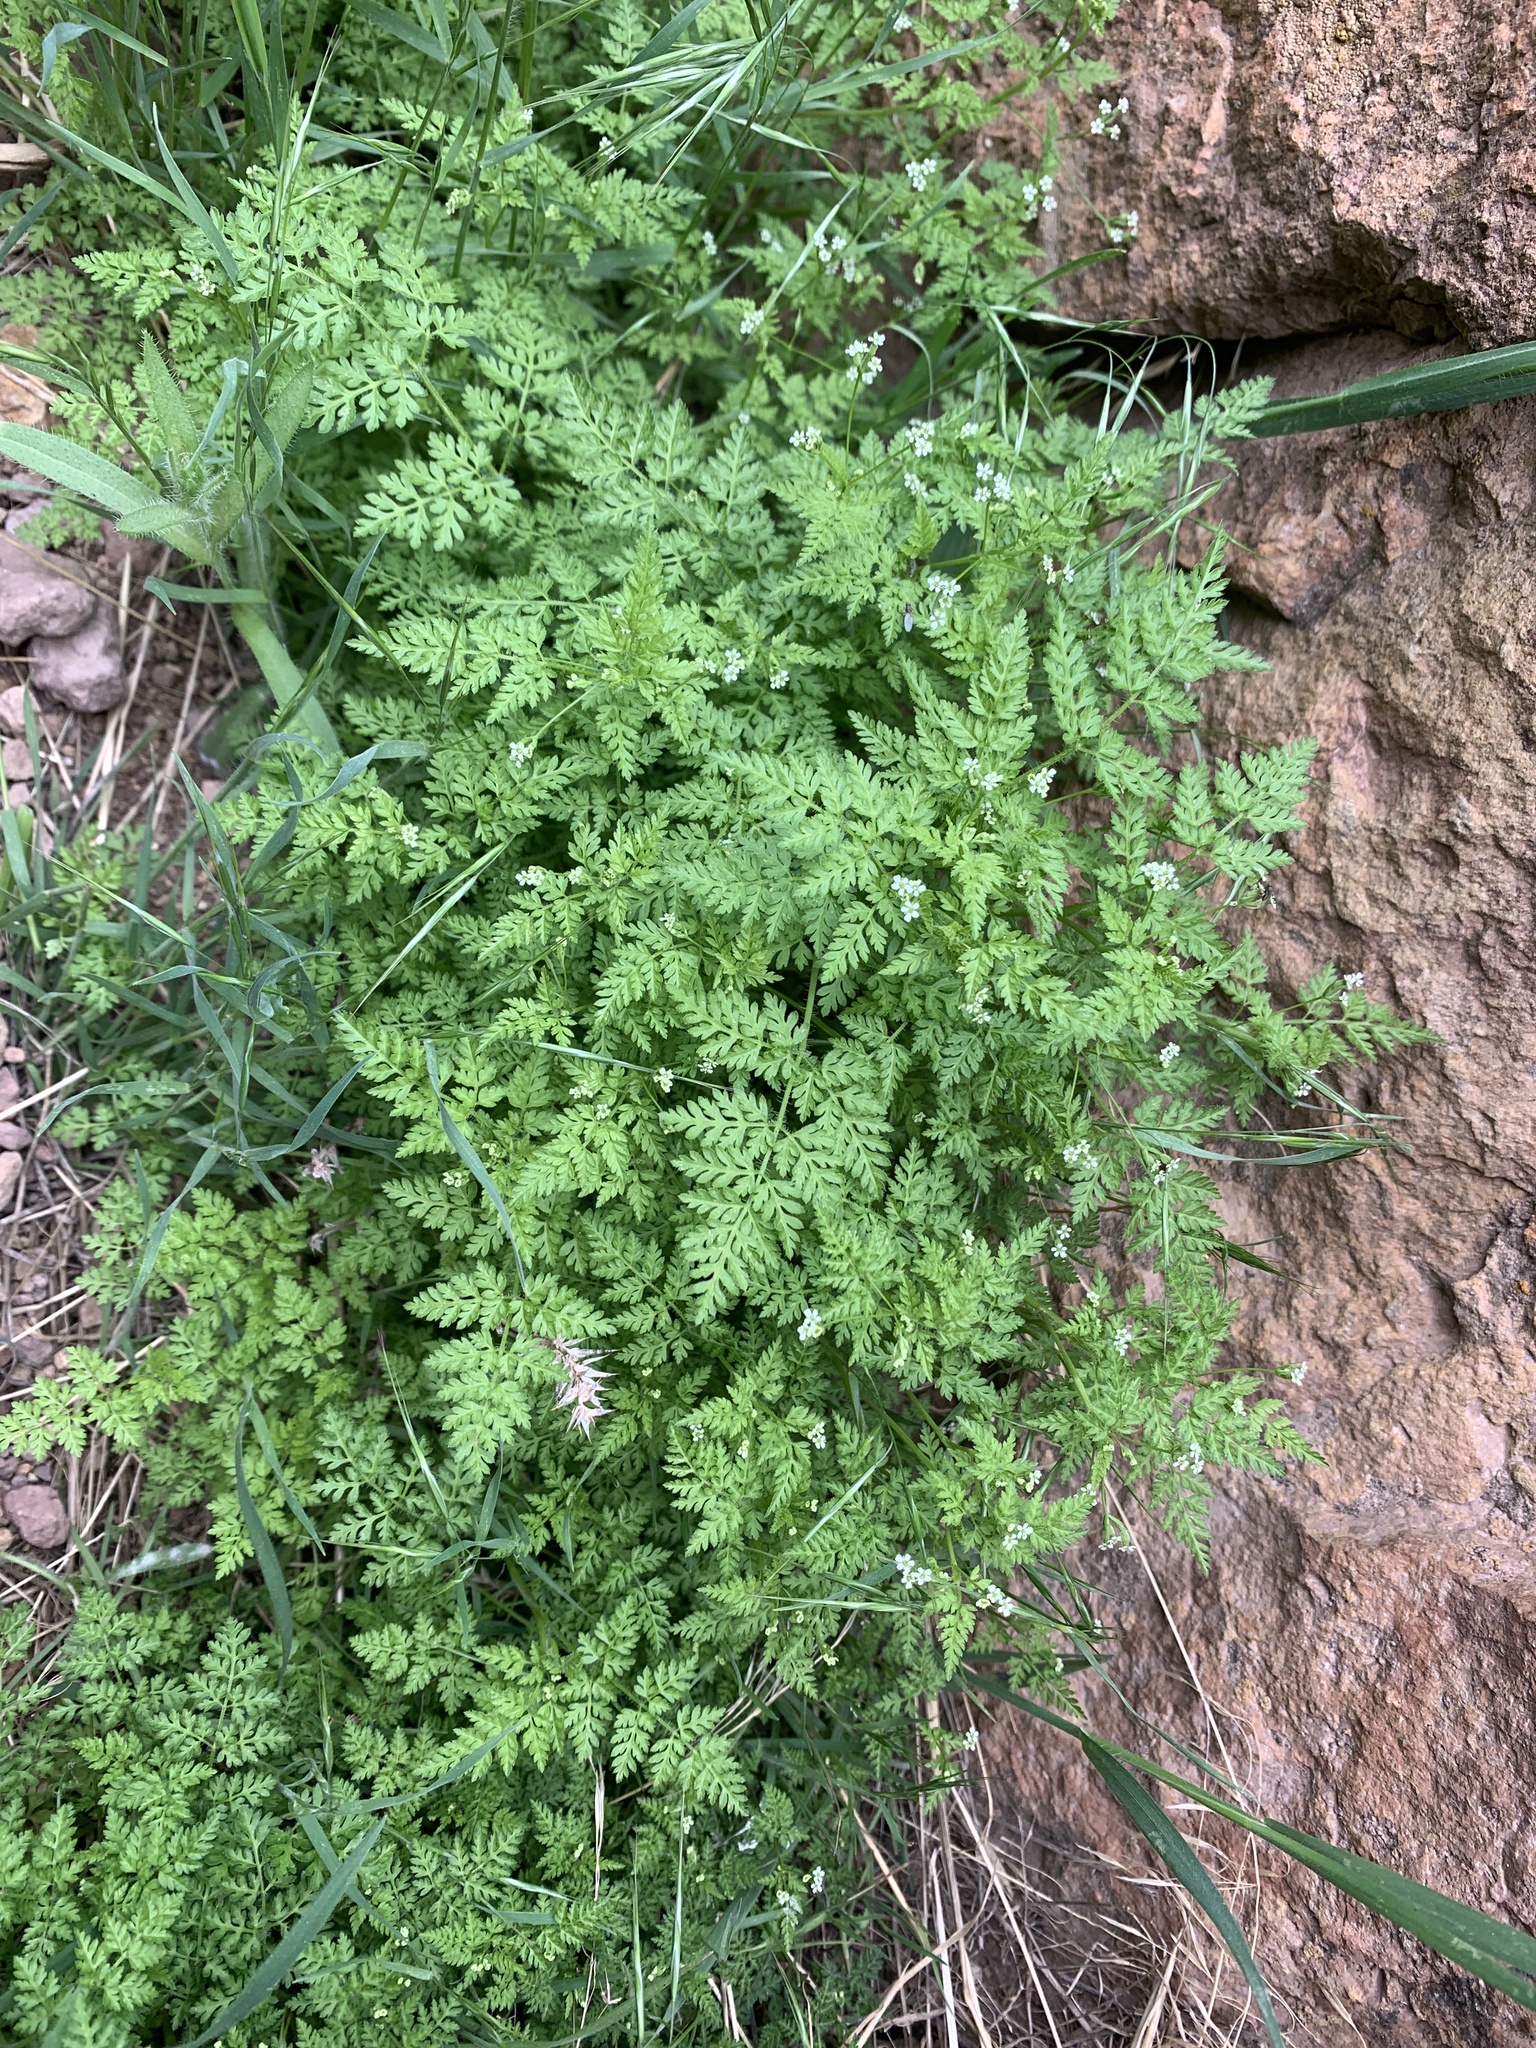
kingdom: Plantae
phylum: Tracheophyta
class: Magnoliopsida
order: Apiales
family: Apiaceae
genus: Anthriscus
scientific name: Anthriscus caucalis
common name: Bur chervil
